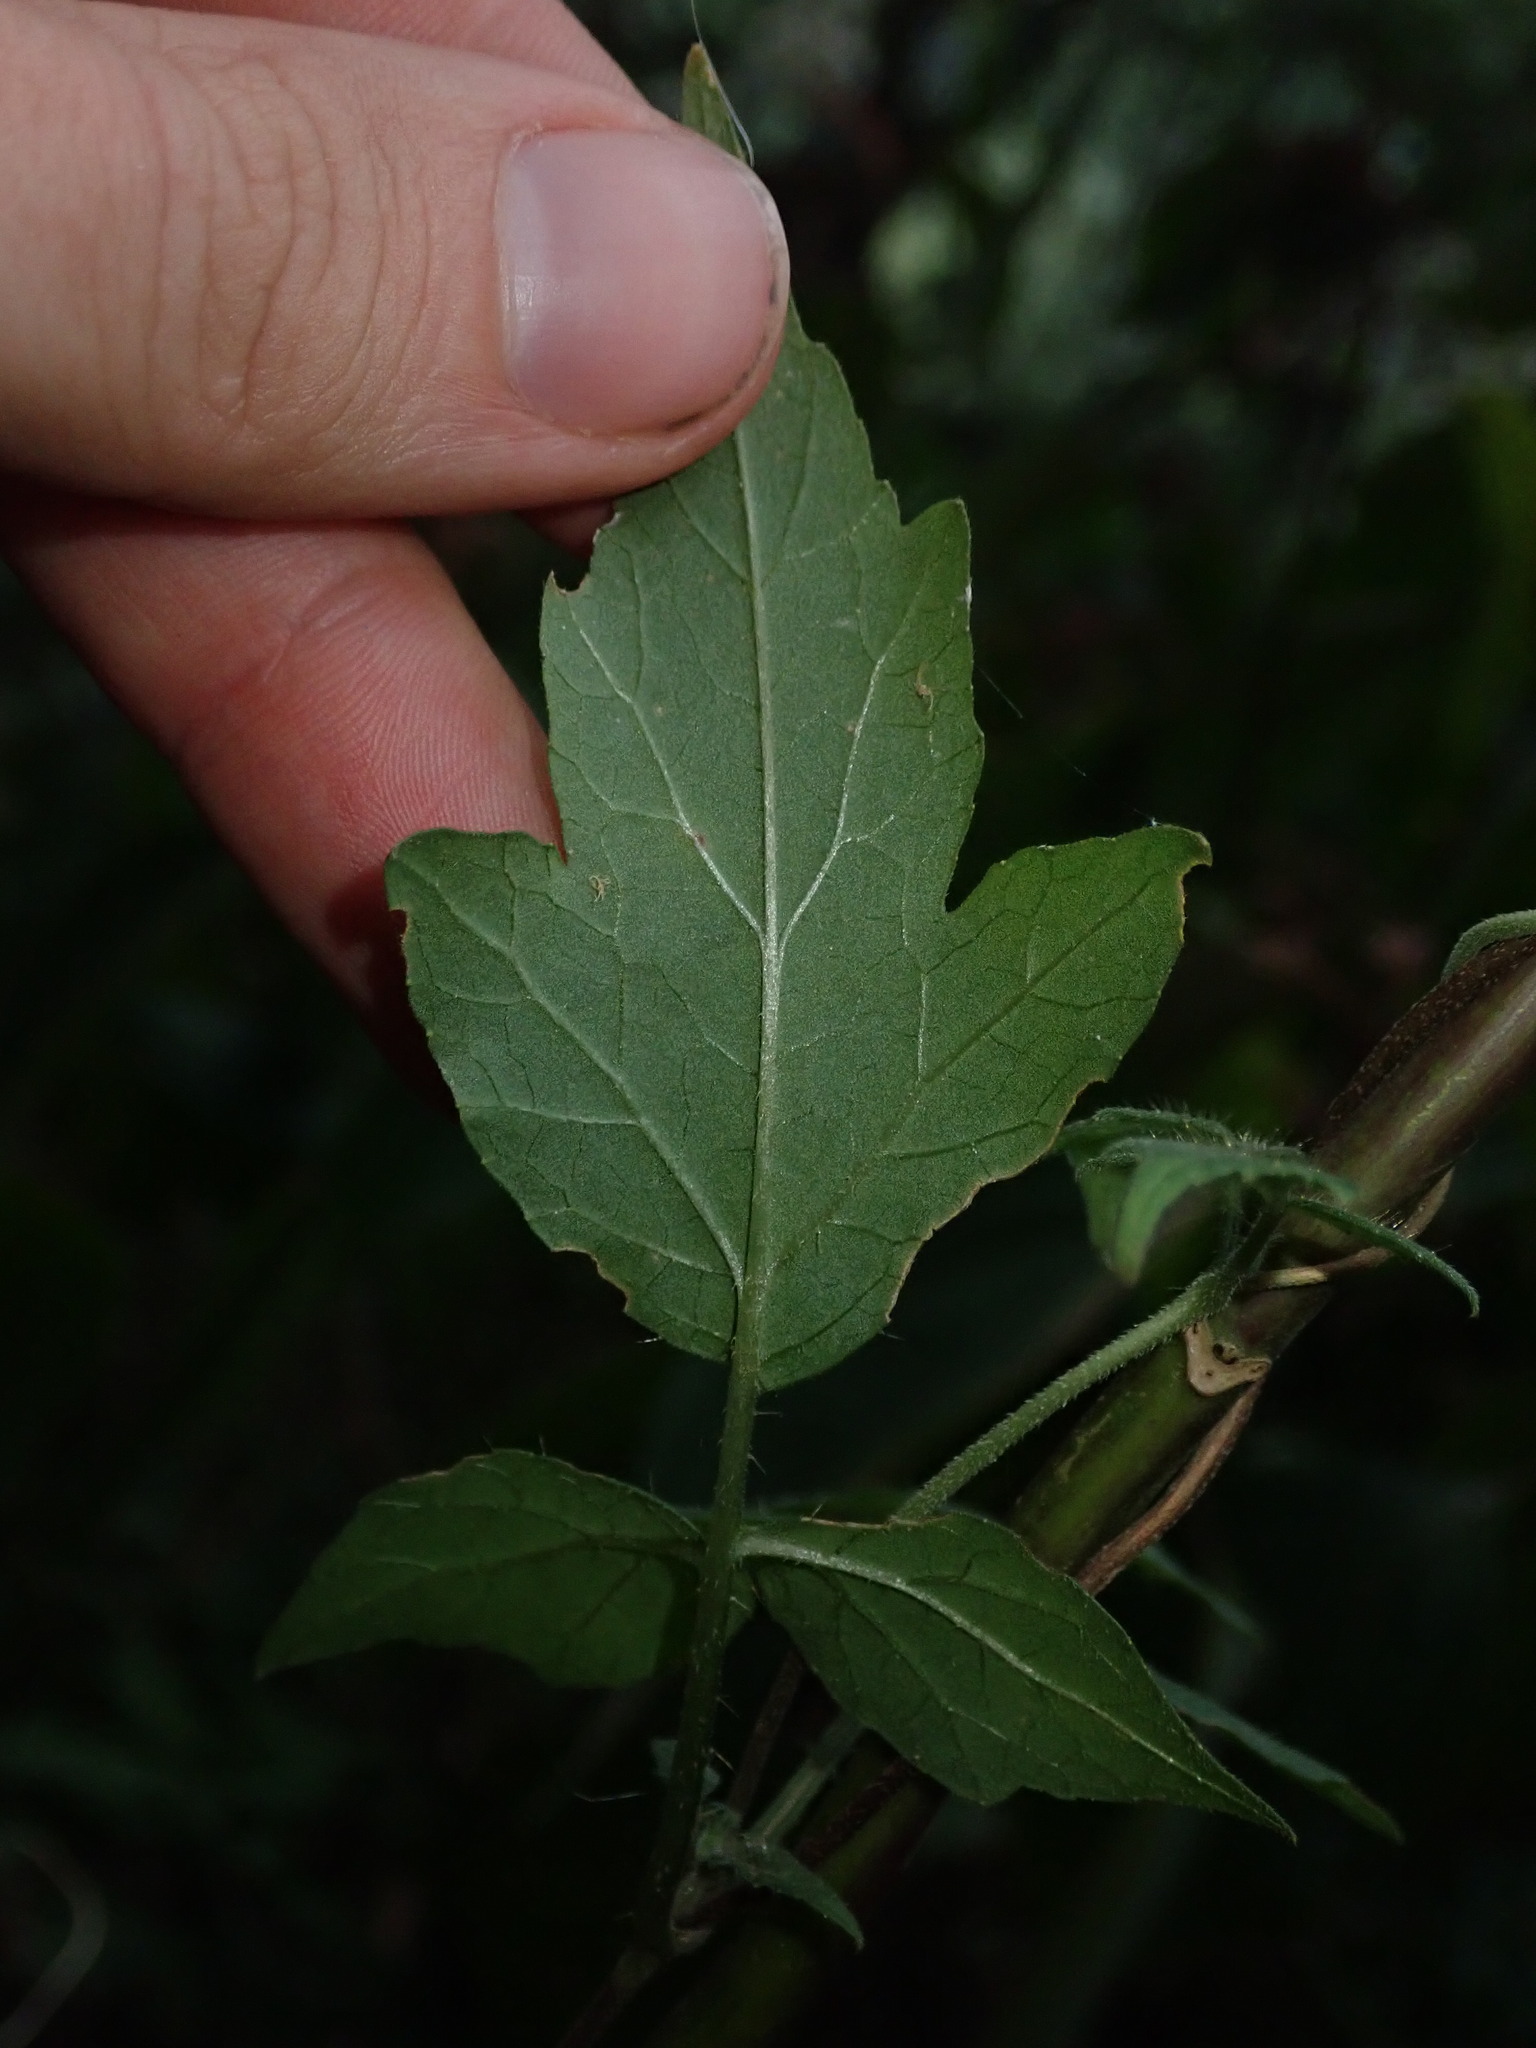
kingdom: Plantae
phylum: Tracheophyta
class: Magnoliopsida
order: Cornales
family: Loasaceae
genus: Caiophora
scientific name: Caiophora hibiscifolia
